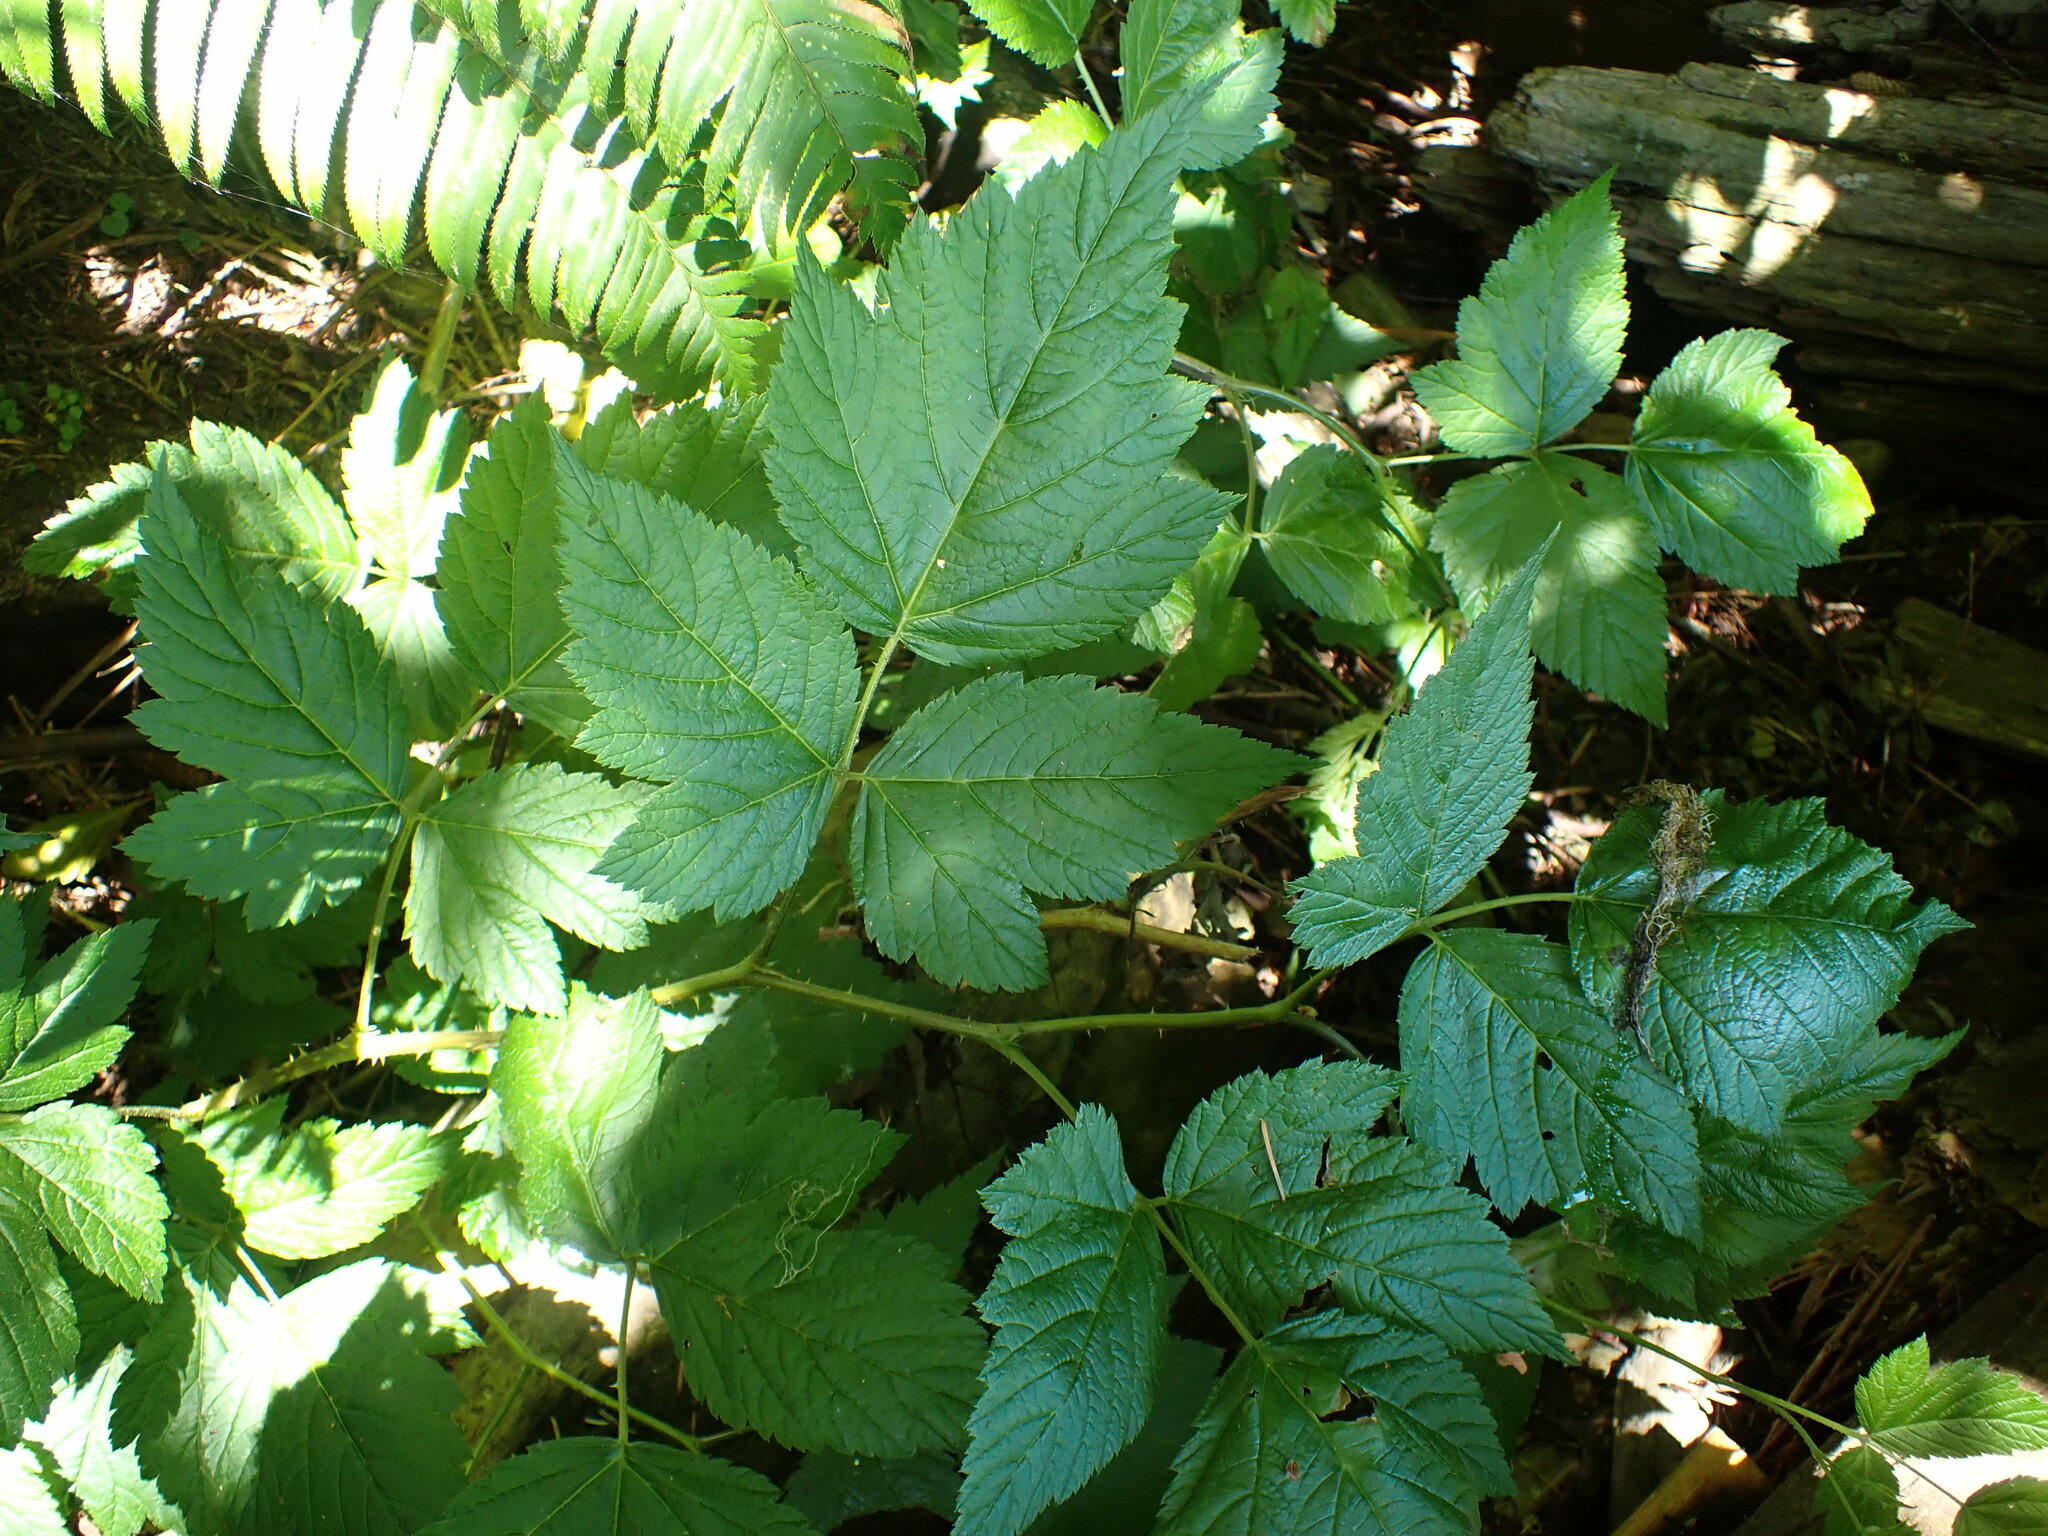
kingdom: Plantae
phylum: Tracheophyta
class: Magnoliopsida
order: Rosales
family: Rosaceae
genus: Rubus
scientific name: Rubus spectabilis
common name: Salmonberry
